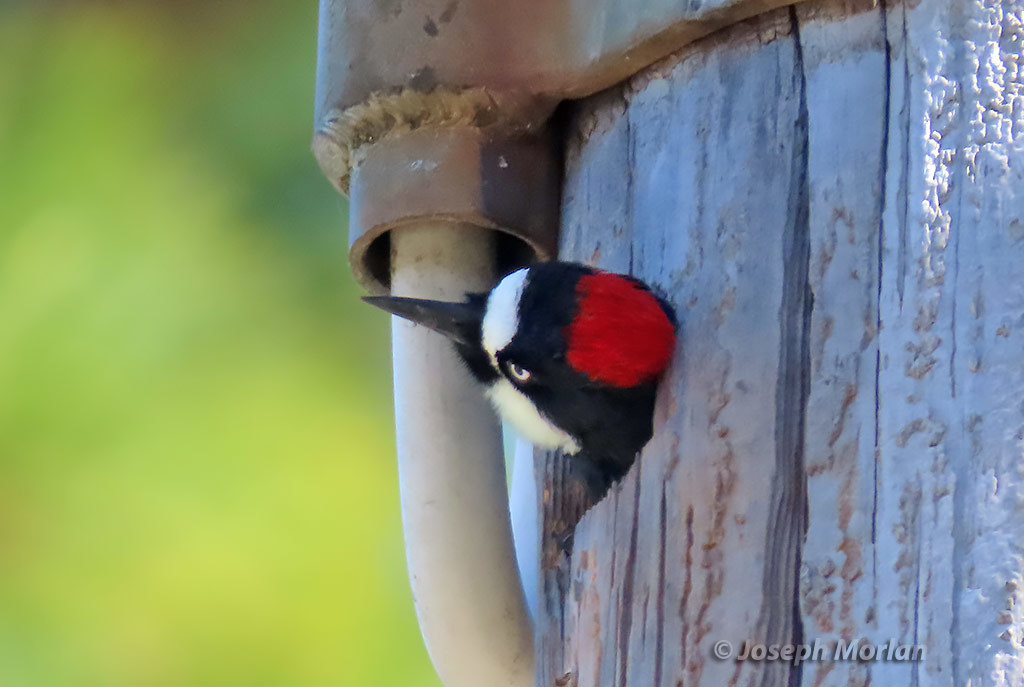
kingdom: Animalia
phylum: Chordata
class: Aves
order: Piciformes
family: Picidae
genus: Melanerpes
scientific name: Melanerpes formicivorus
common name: Acorn woodpecker
